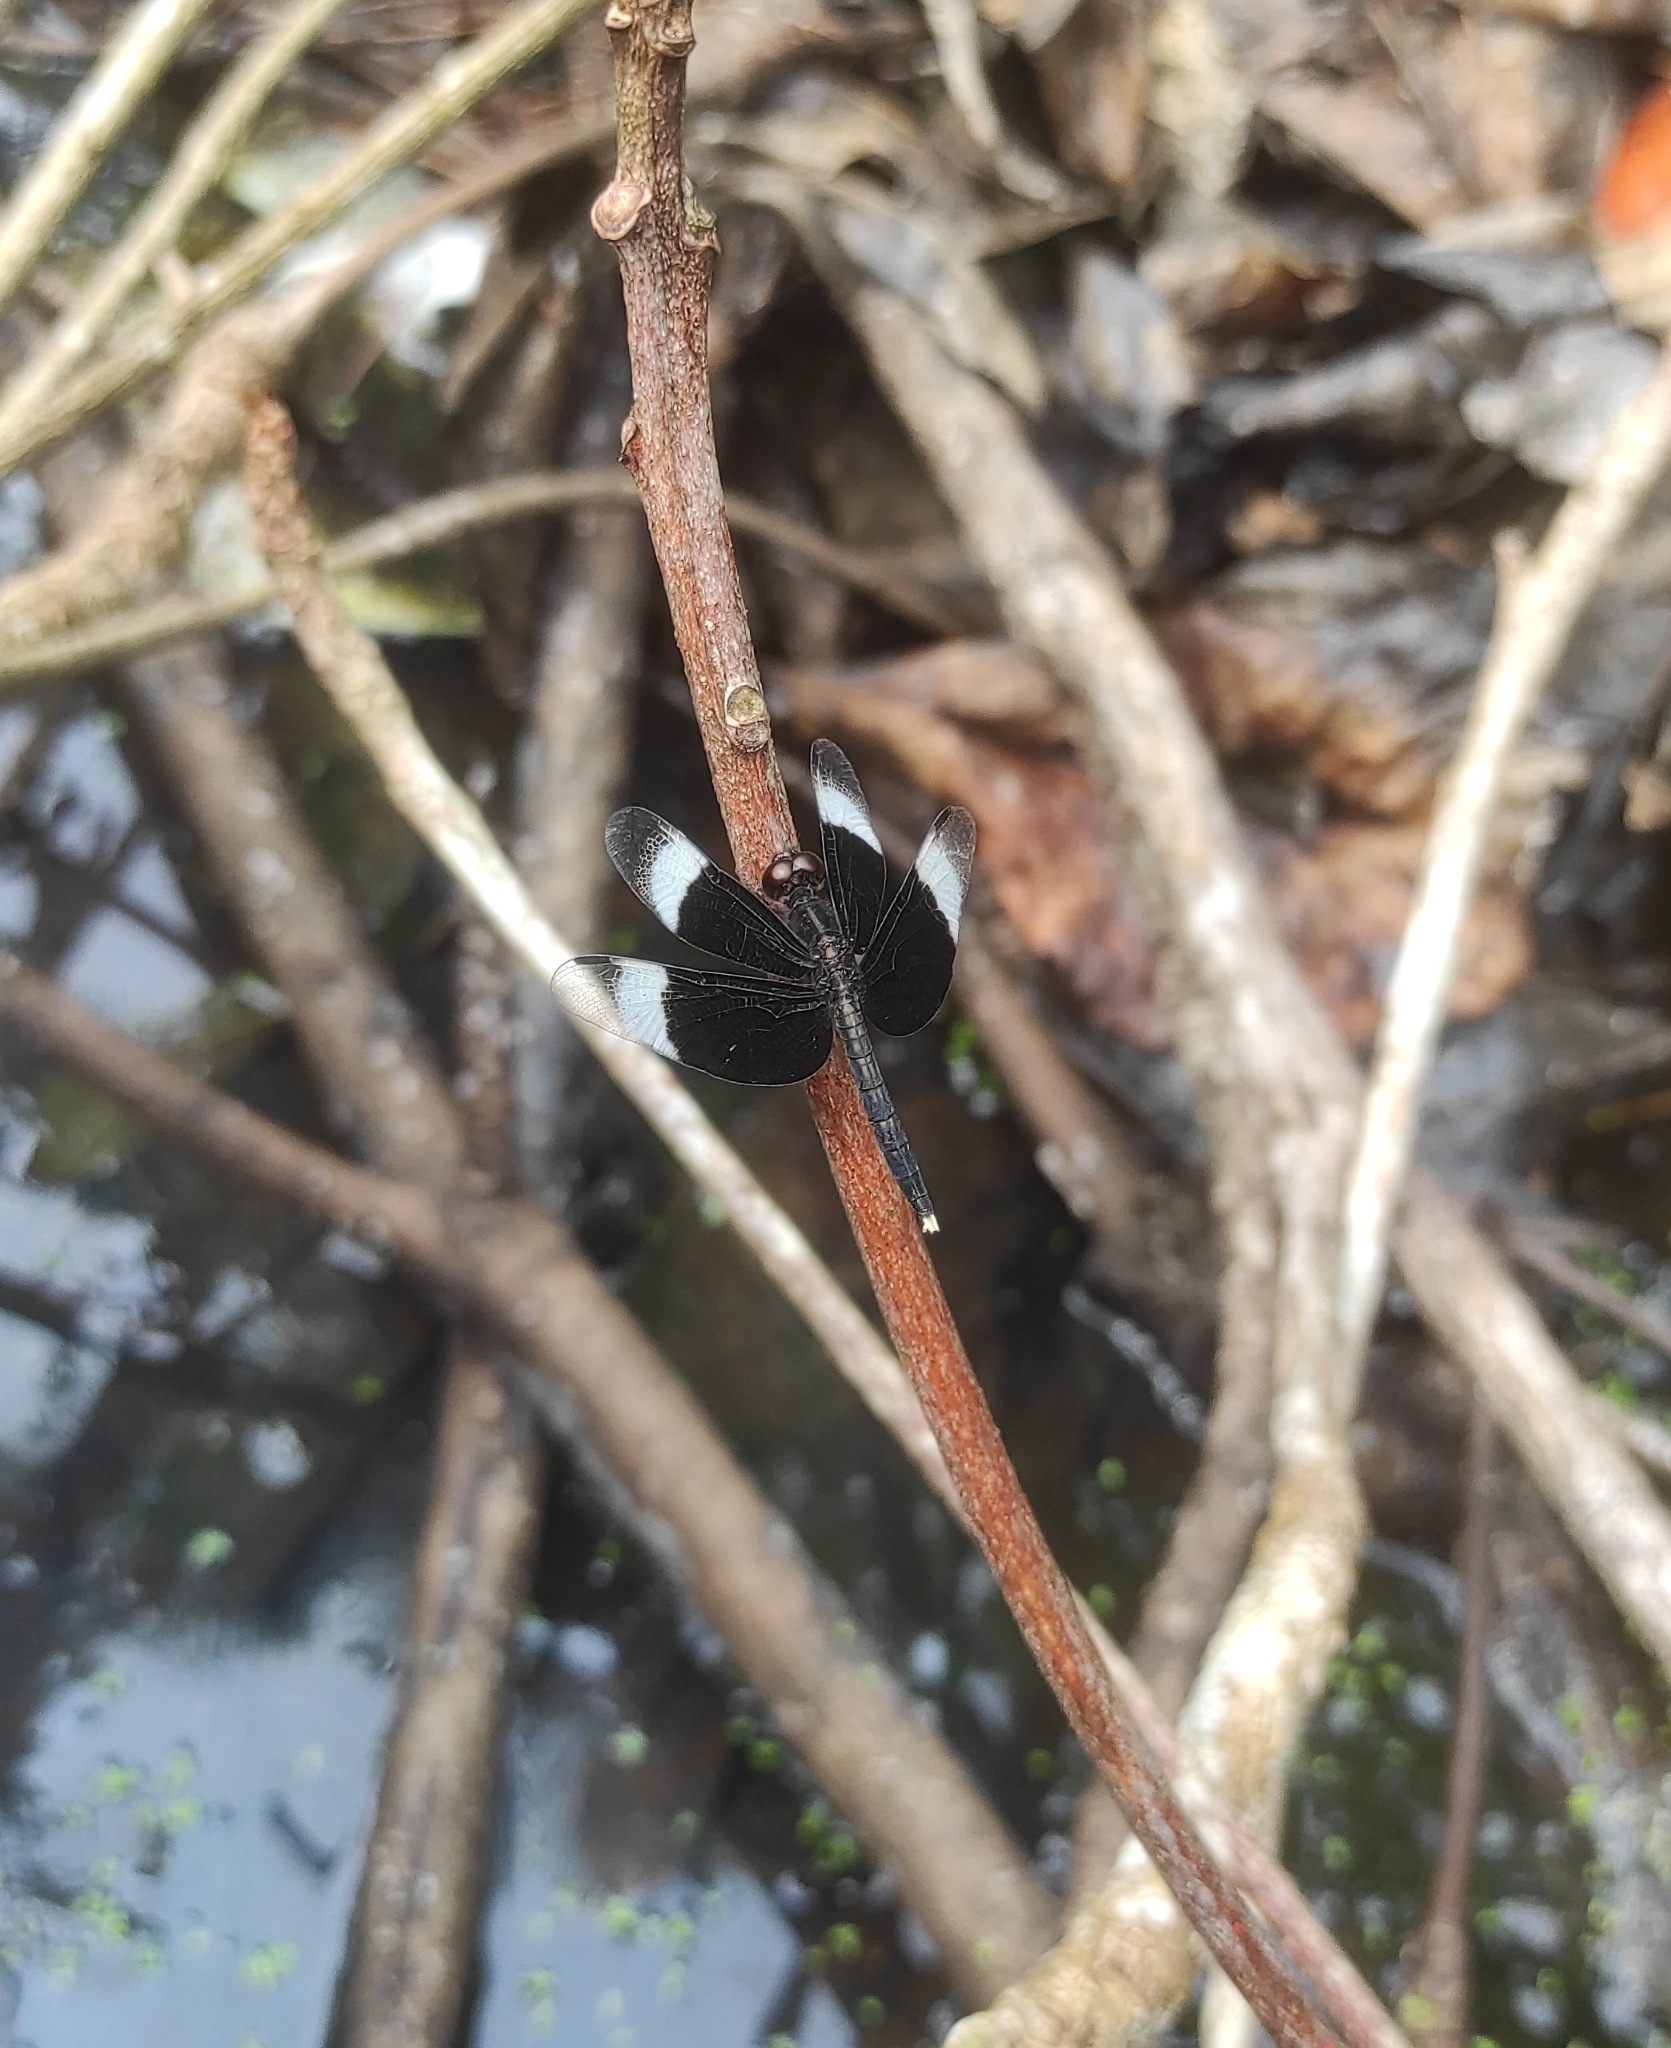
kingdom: Animalia
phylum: Arthropoda
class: Insecta
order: Odonata
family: Libellulidae
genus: Neurothemis
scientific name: Neurothemis tullia
